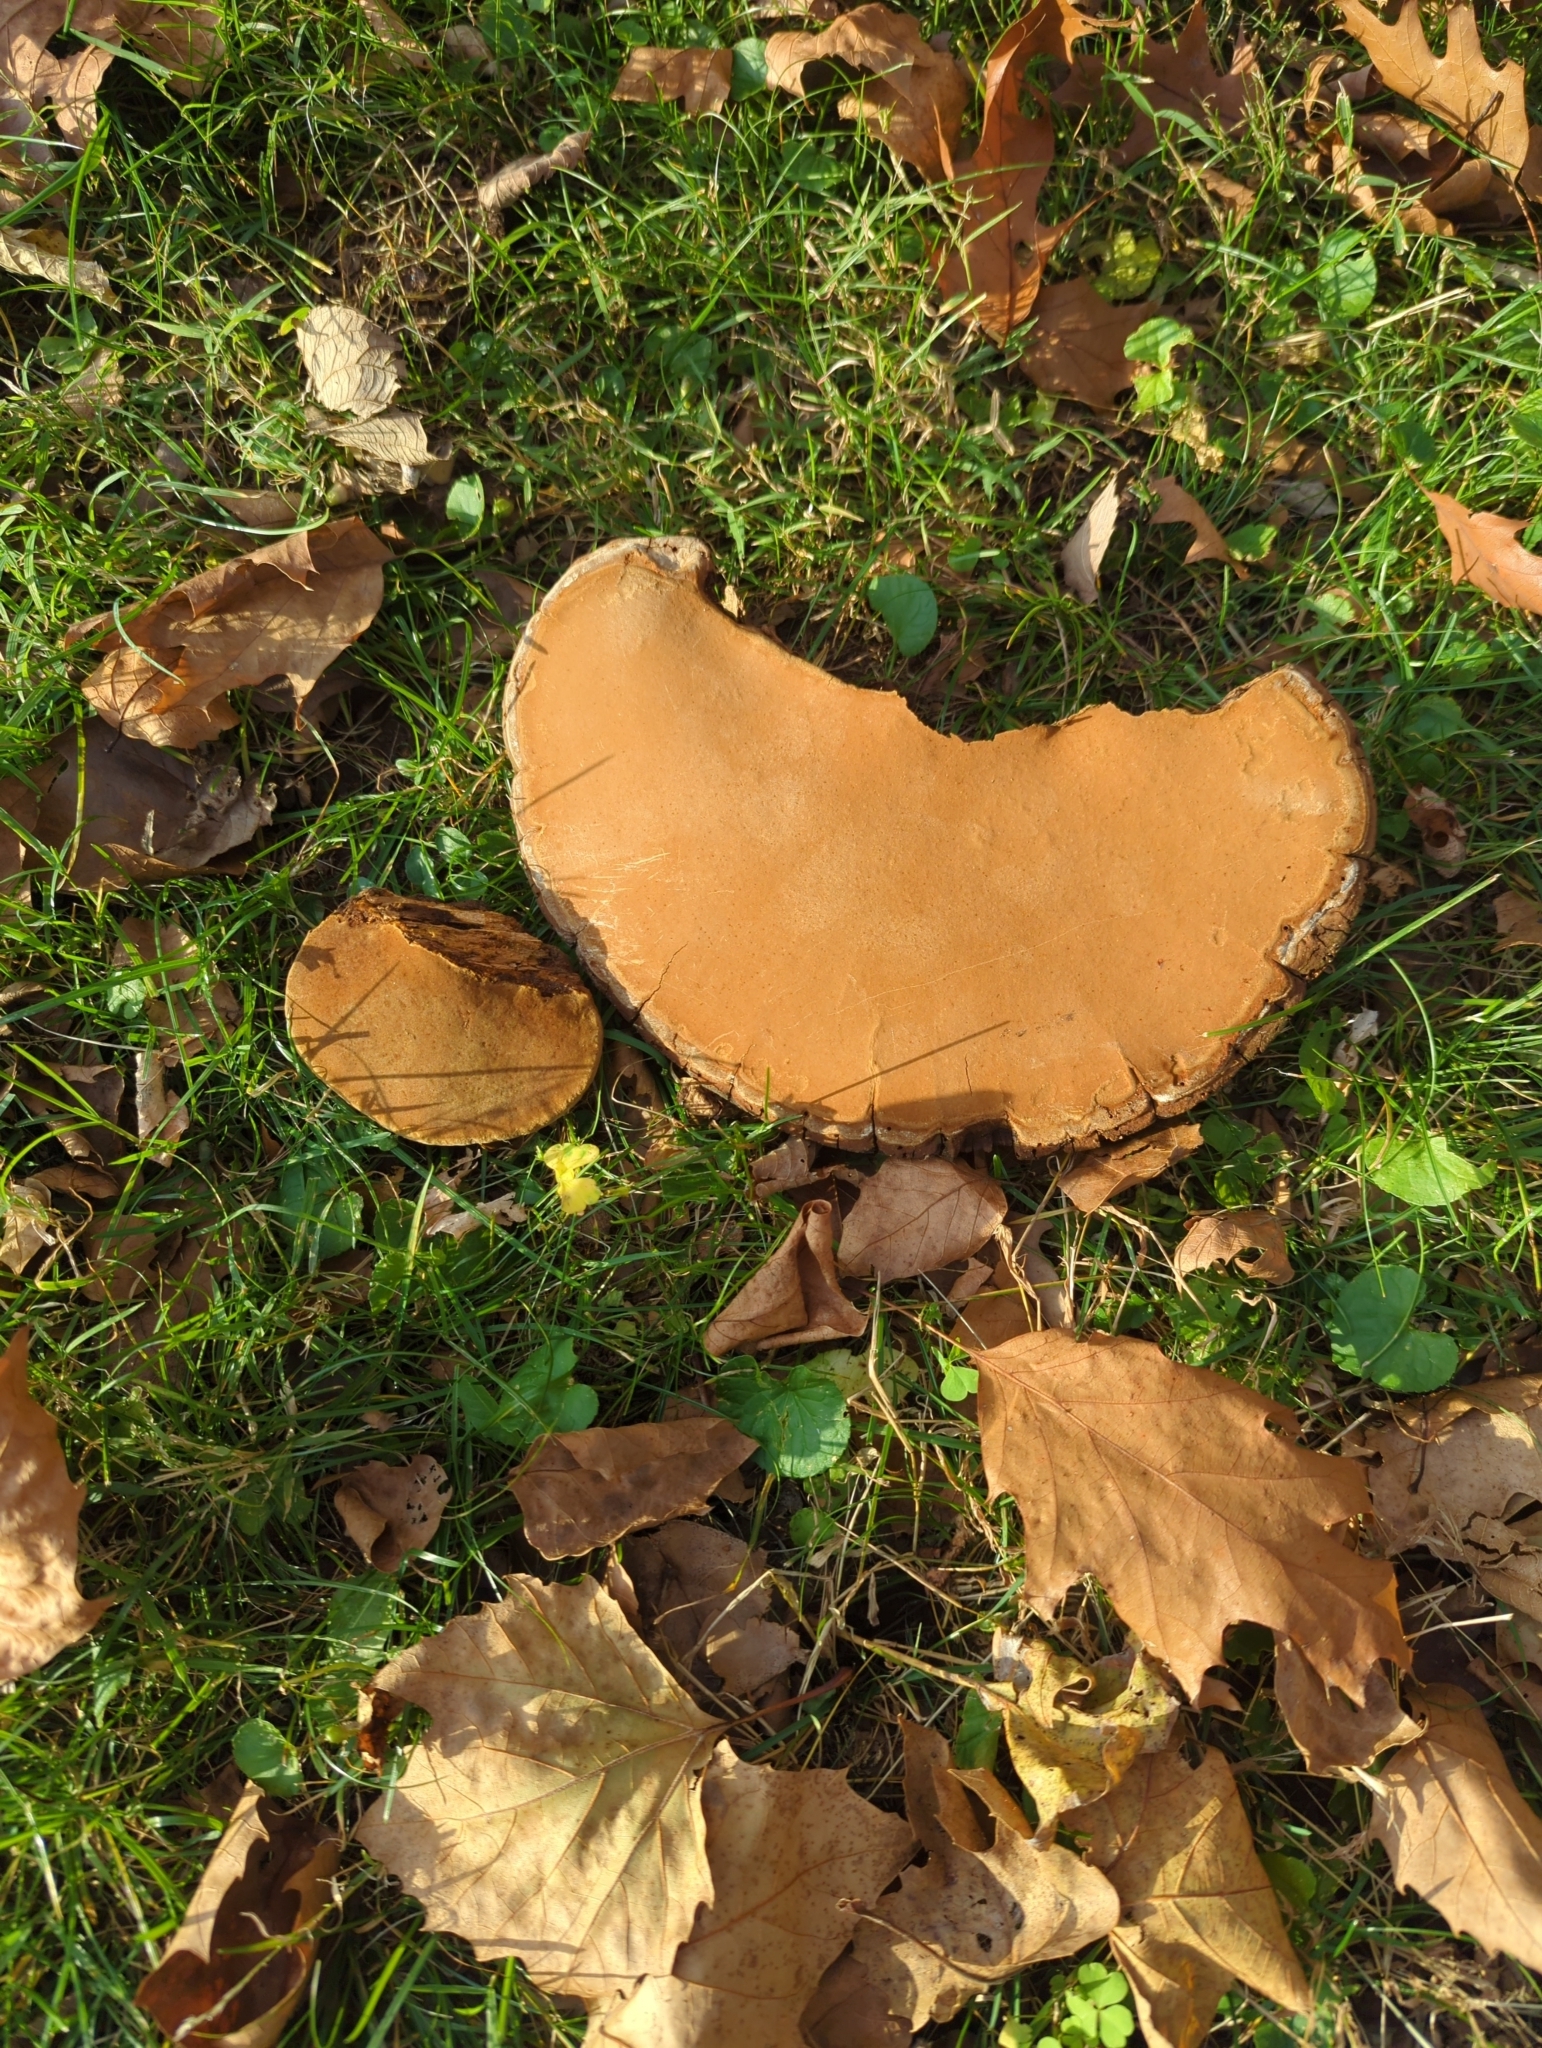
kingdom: Fungi
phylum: Basidiomycota
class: Agaricomycetes
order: Hymenochaetales
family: Hymenochaetaceae
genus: Phellinus
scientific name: Phellinus robiniae
